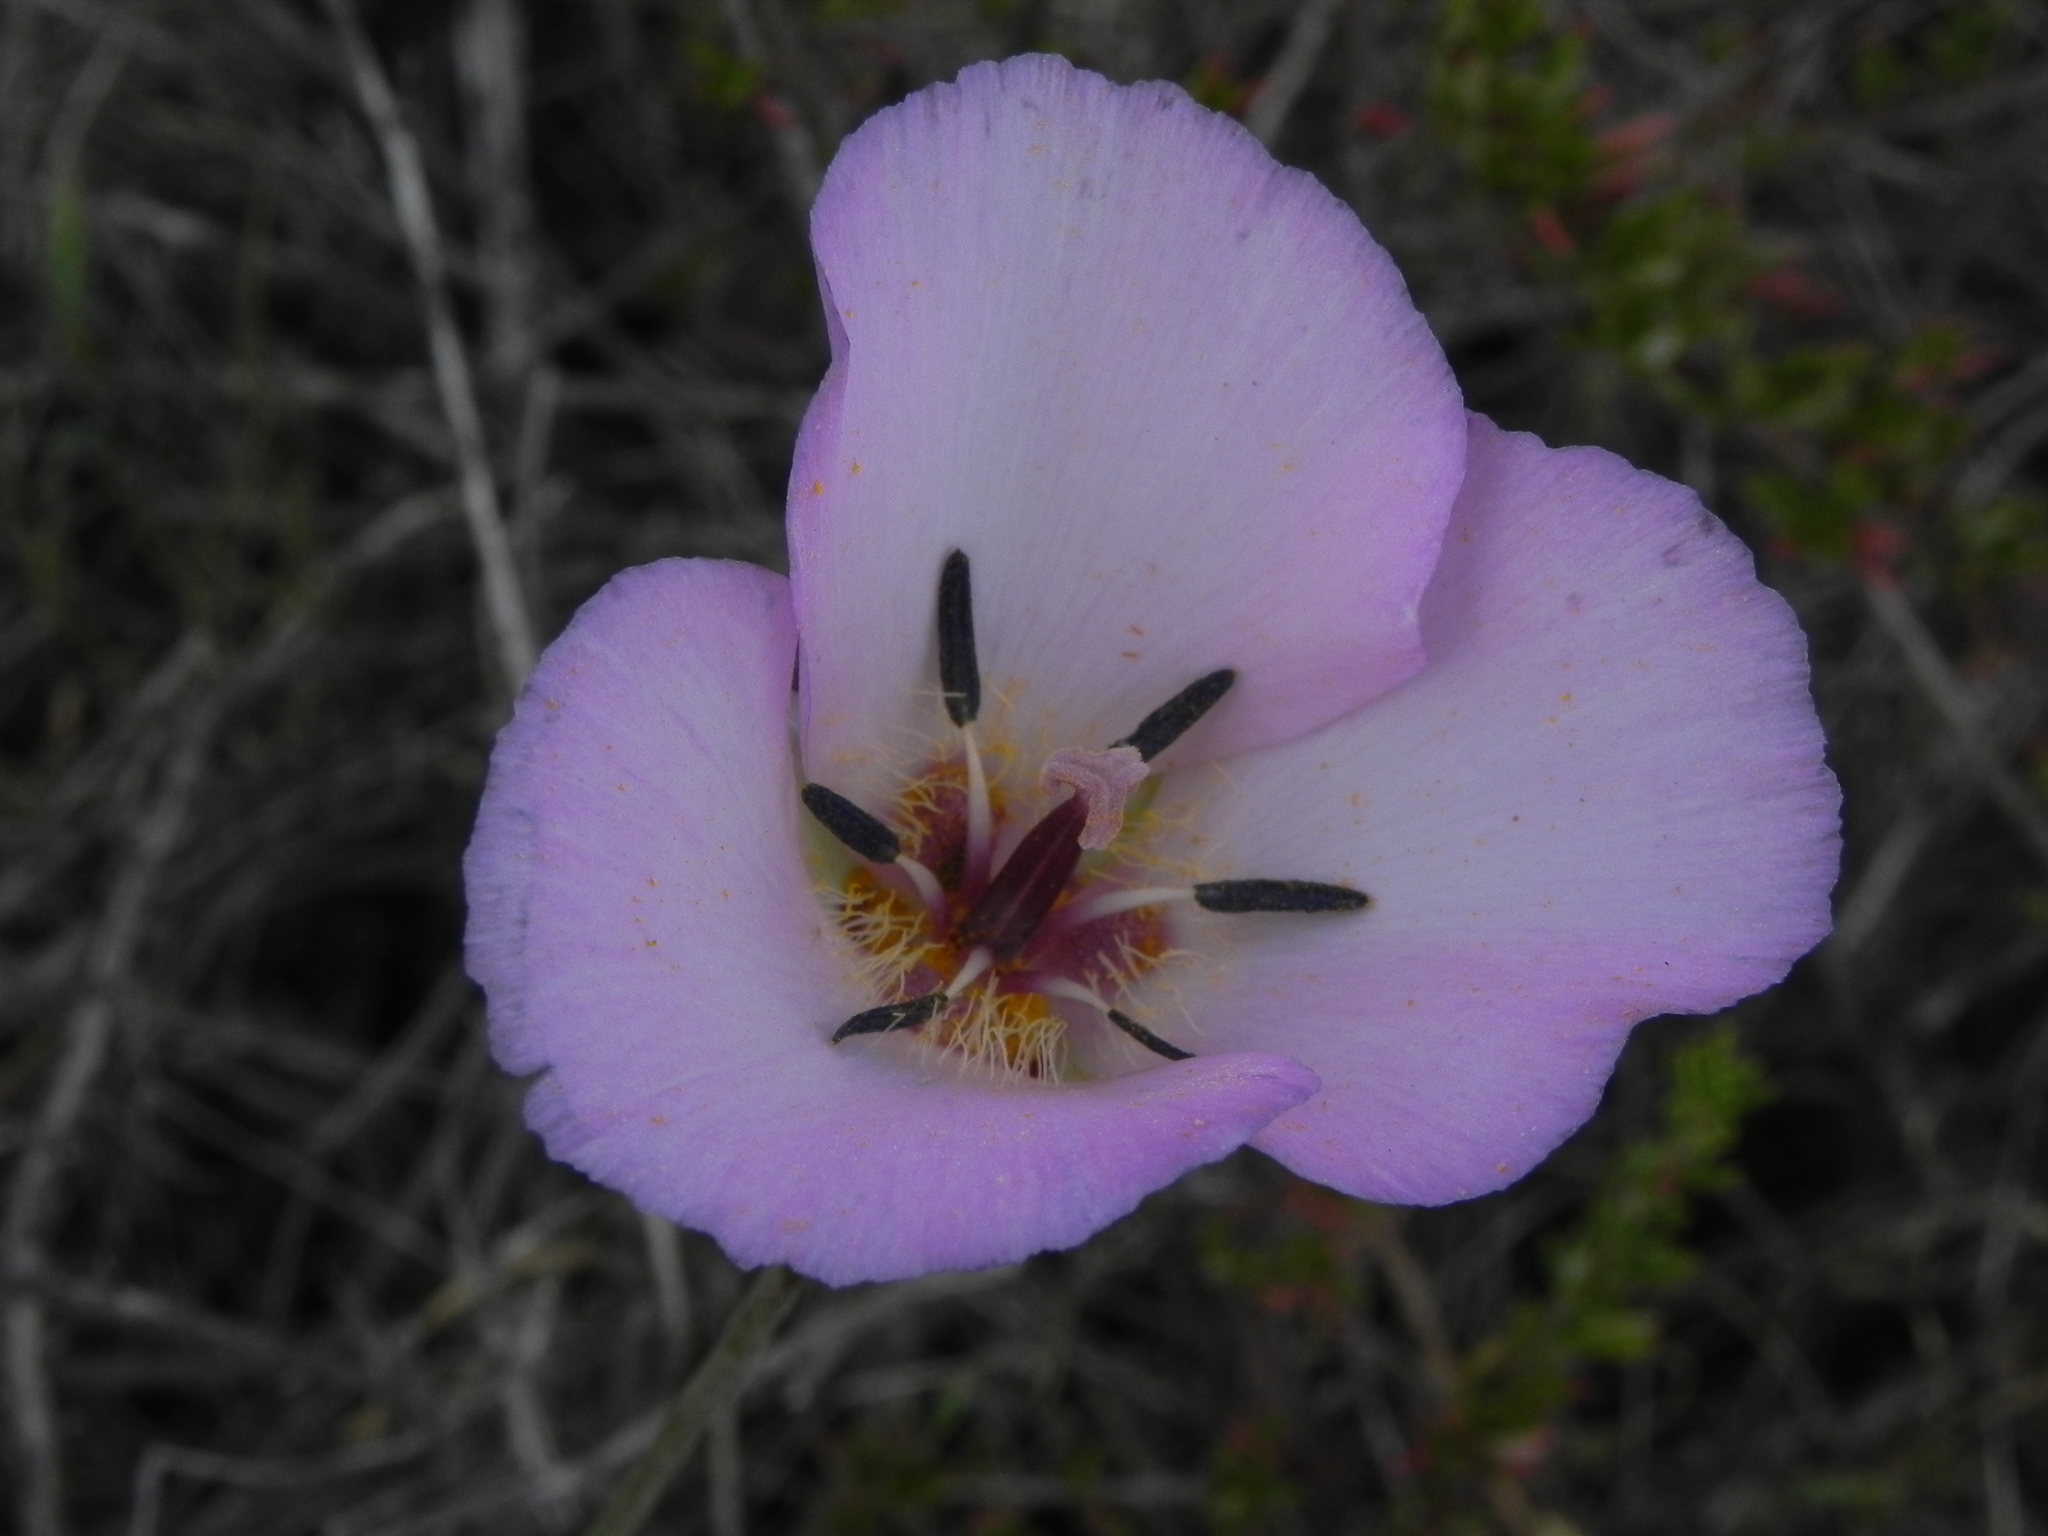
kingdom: Plantae
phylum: Tracheophyta
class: Liliopsida
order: Liliales
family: Liliaceae
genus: Calochortus
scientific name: Calochortus splendens
